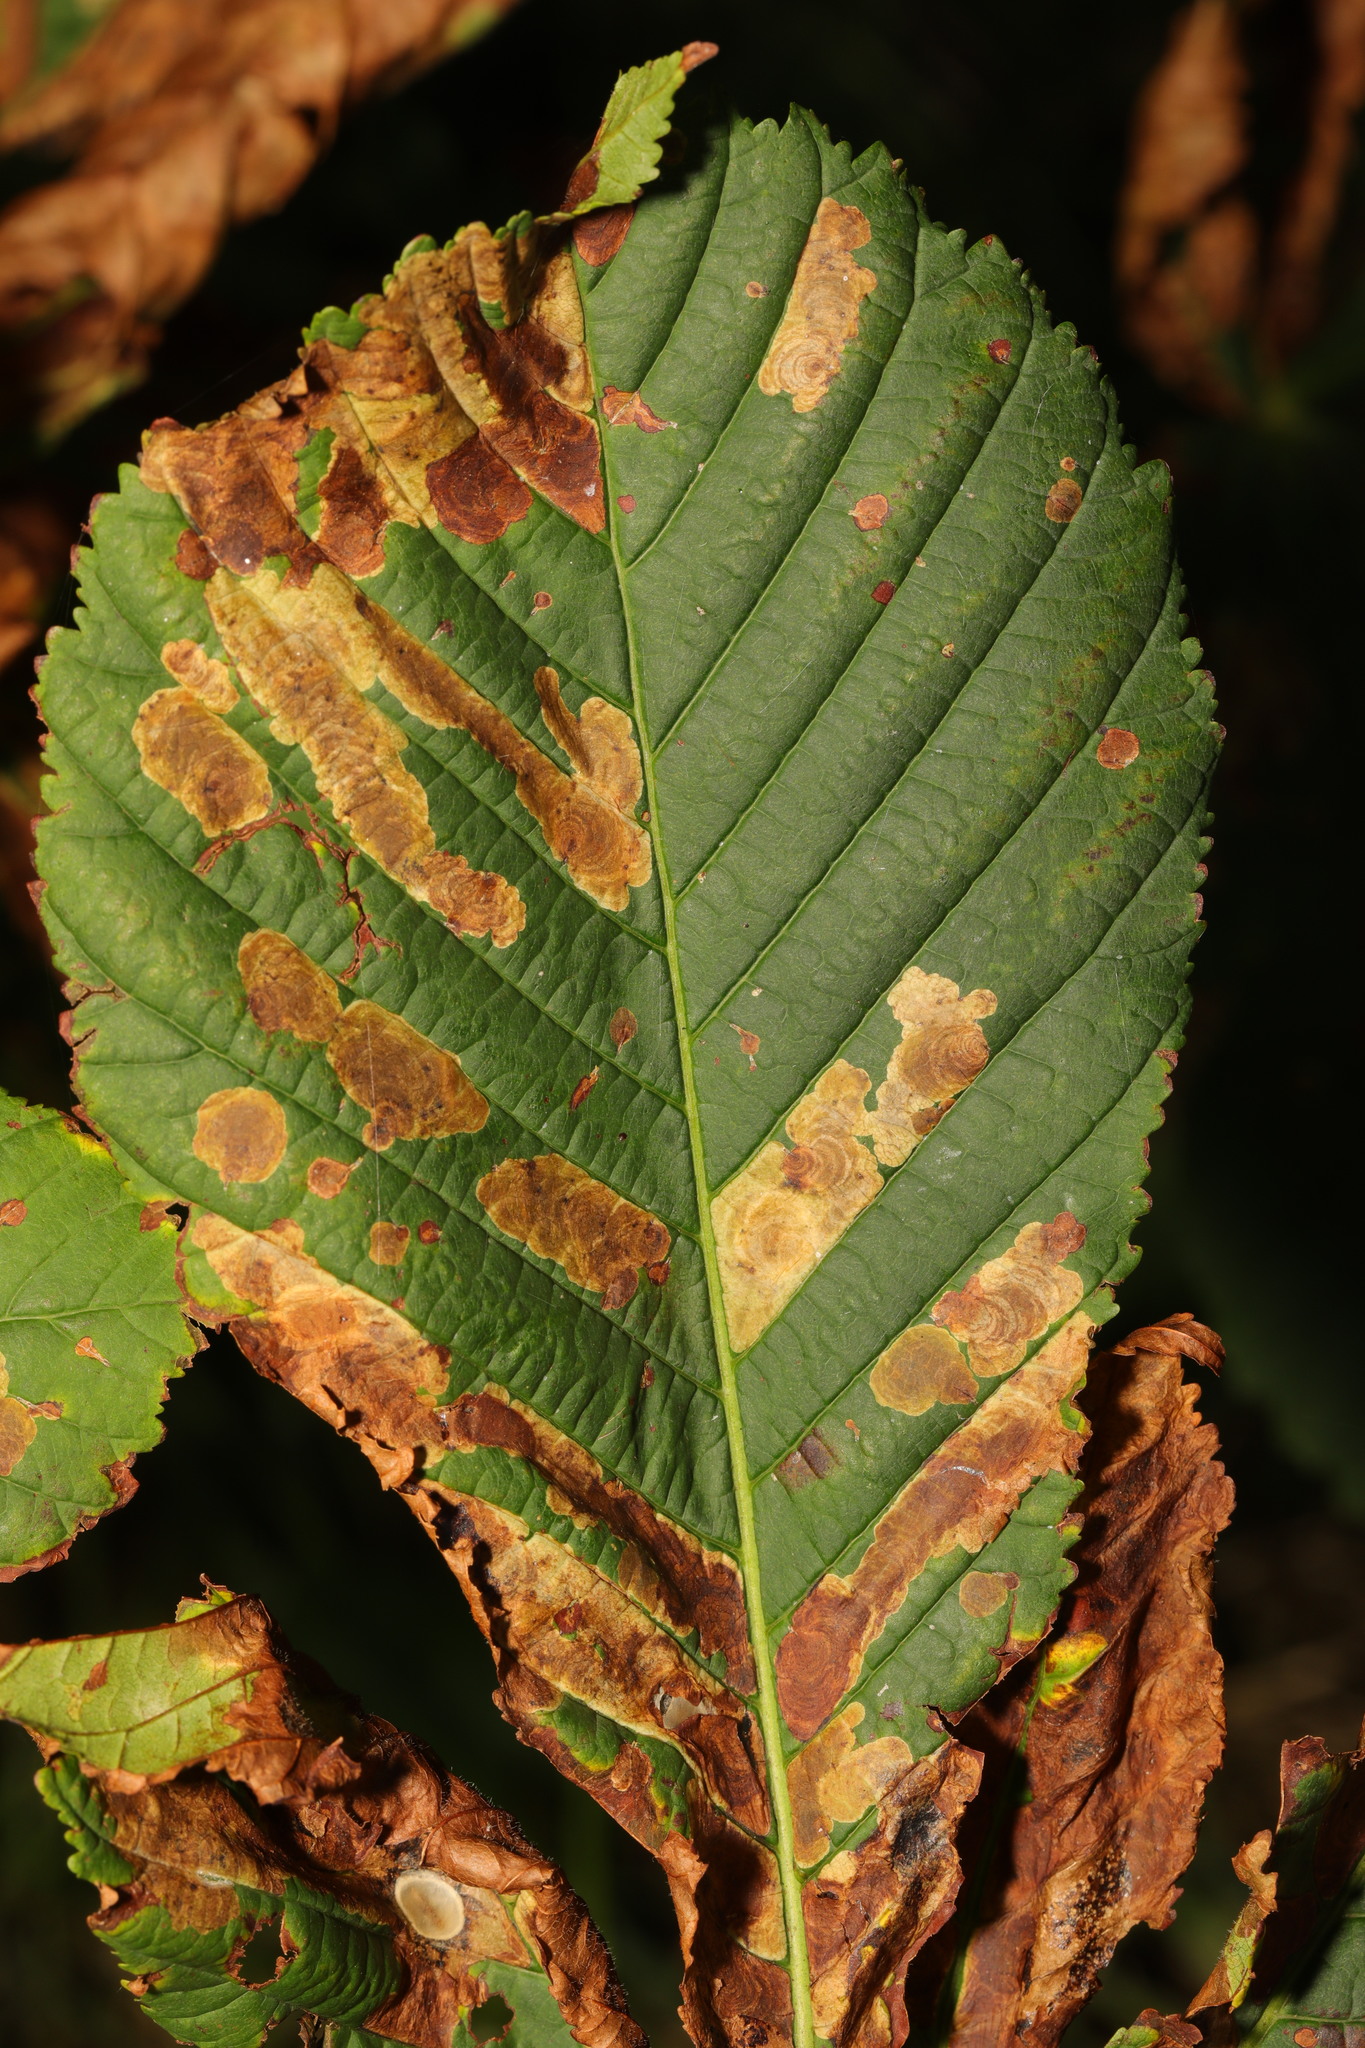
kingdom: Animalia
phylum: Arthropoda
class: Insecta
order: Lepidoptera
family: Gracillariidae
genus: Cameraria
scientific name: Cameraria ohridella
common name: Horse-chestnut leaf-miner
